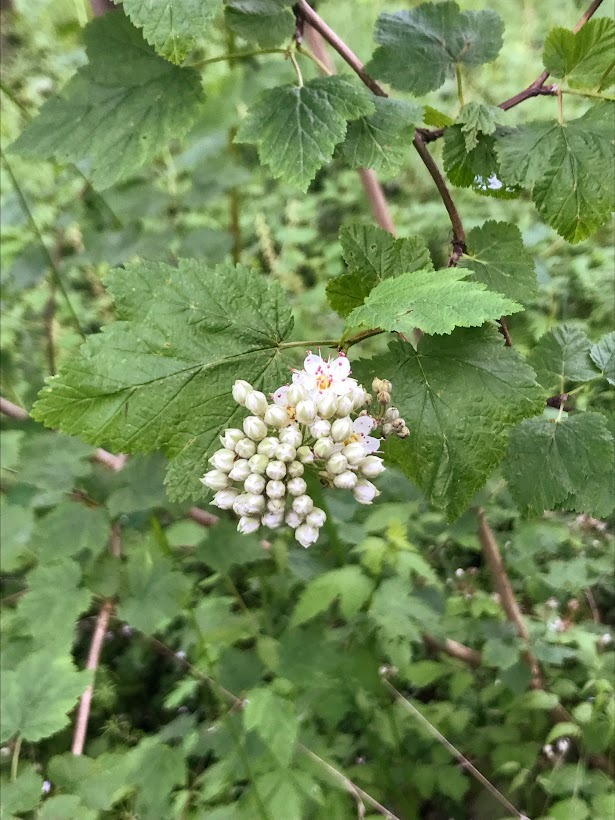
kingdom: Plantae
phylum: Tracheophyta
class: Magnoliopsida
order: Rosales
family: Rosaceae
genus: Physocarpus
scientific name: Physocarpus capitatus
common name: Pacific ninebark
